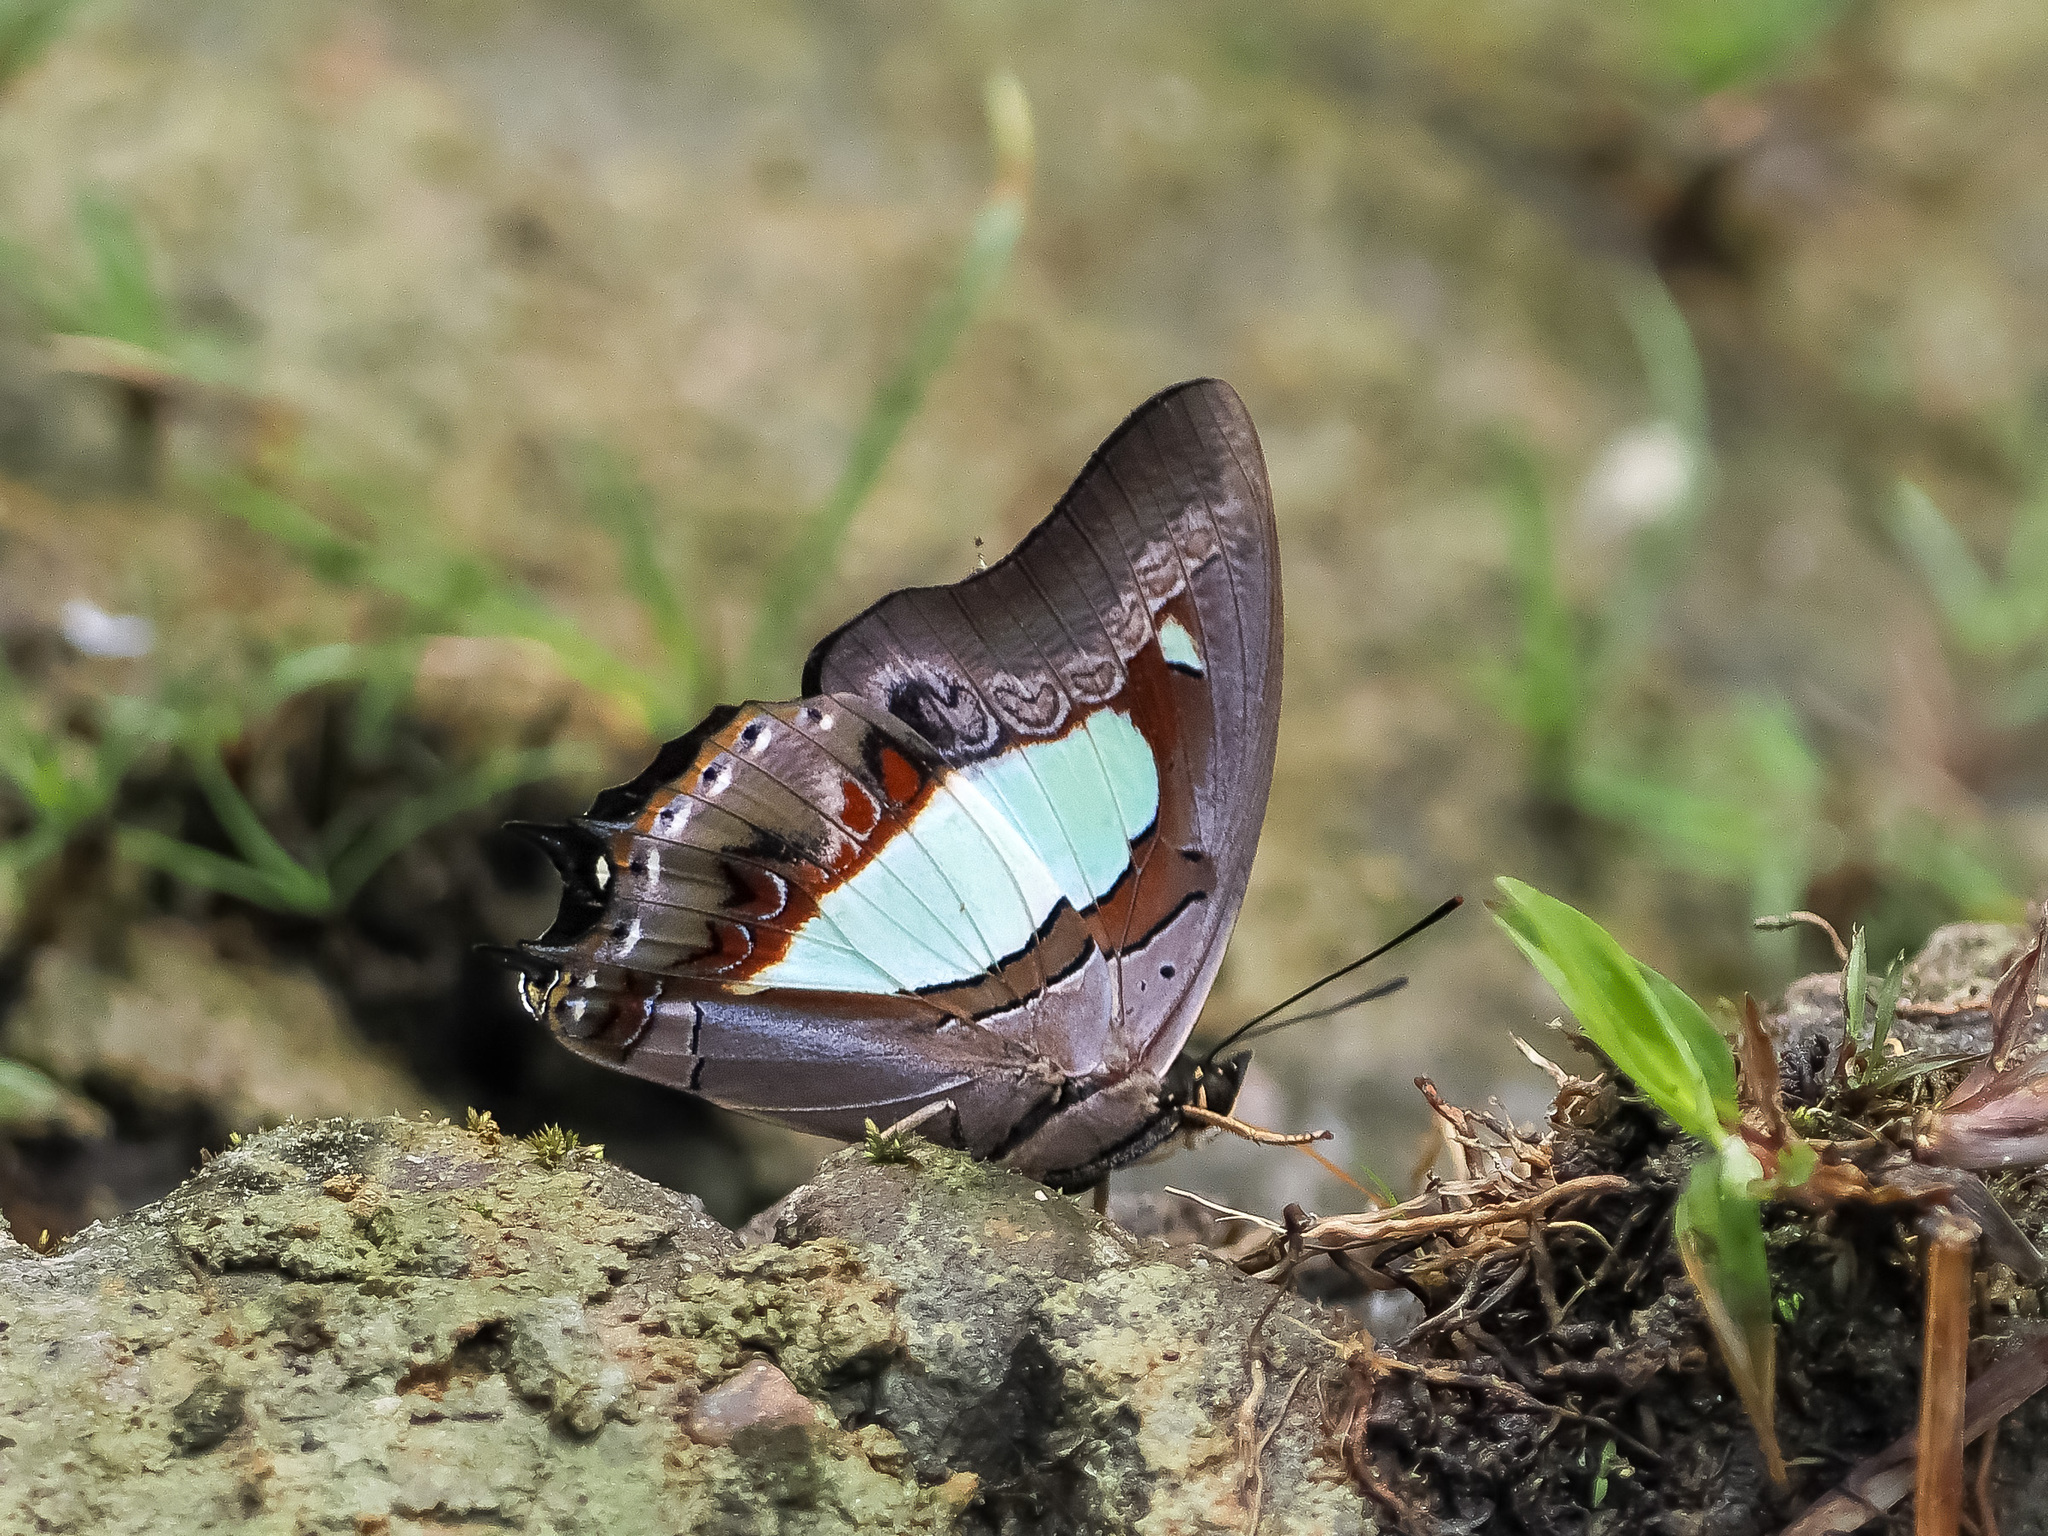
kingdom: Animalia
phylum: Arthropoda
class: Insecta
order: Lepidoptera
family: Nymphalidae
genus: Polyura
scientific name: Polyura athamas
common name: Common nawab
